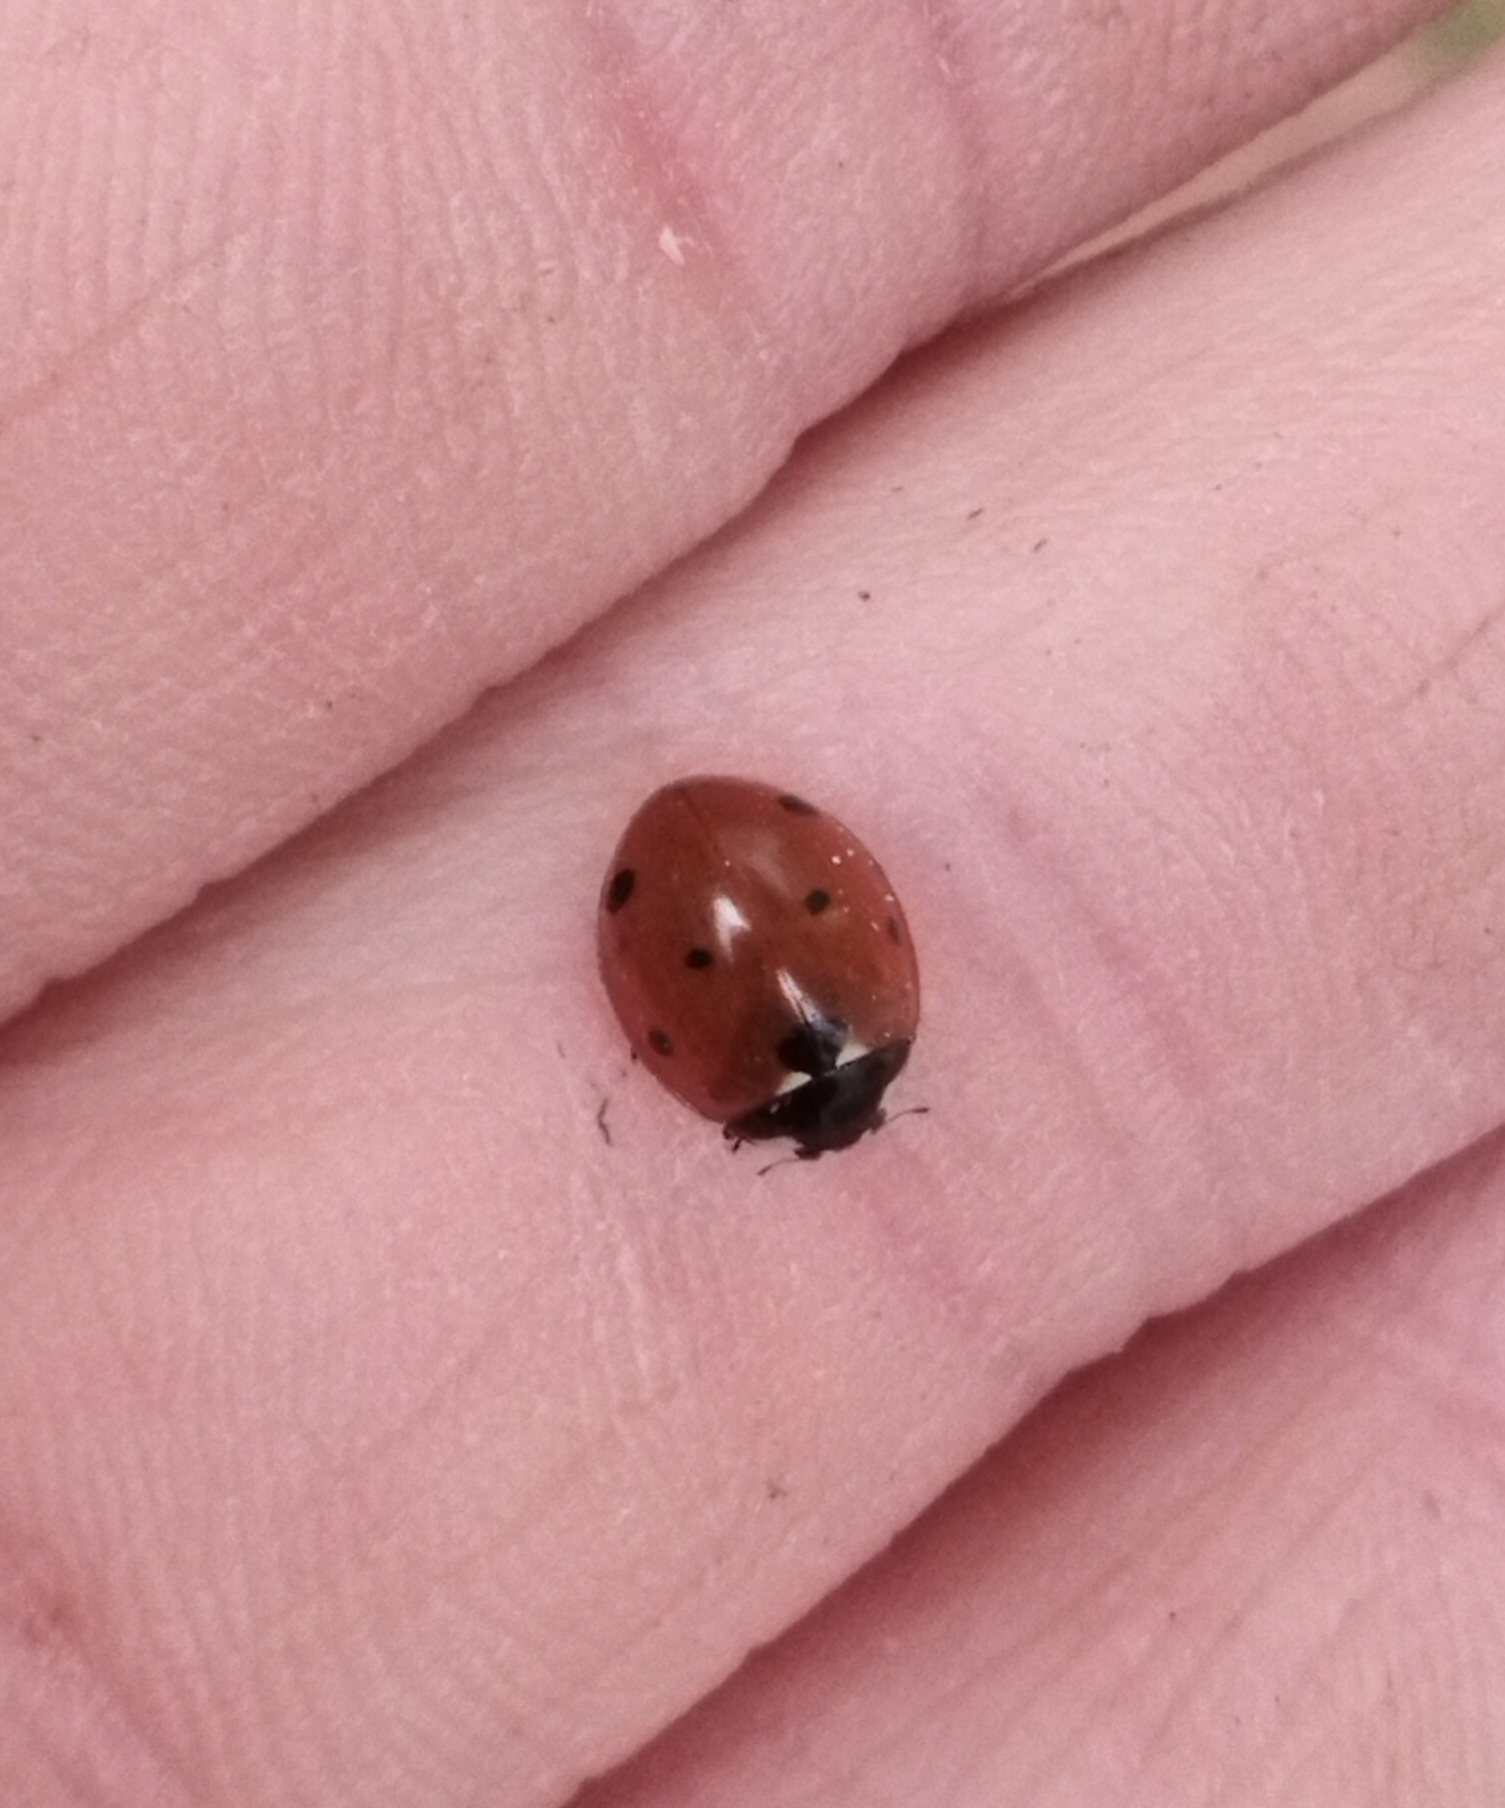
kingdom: Animalia
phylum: Arthropoda
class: Insecta
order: Coleoptera
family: Coccinellidae
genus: Coccinella
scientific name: Coccinella septempunctata
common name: Sevenspotted lady beetle
